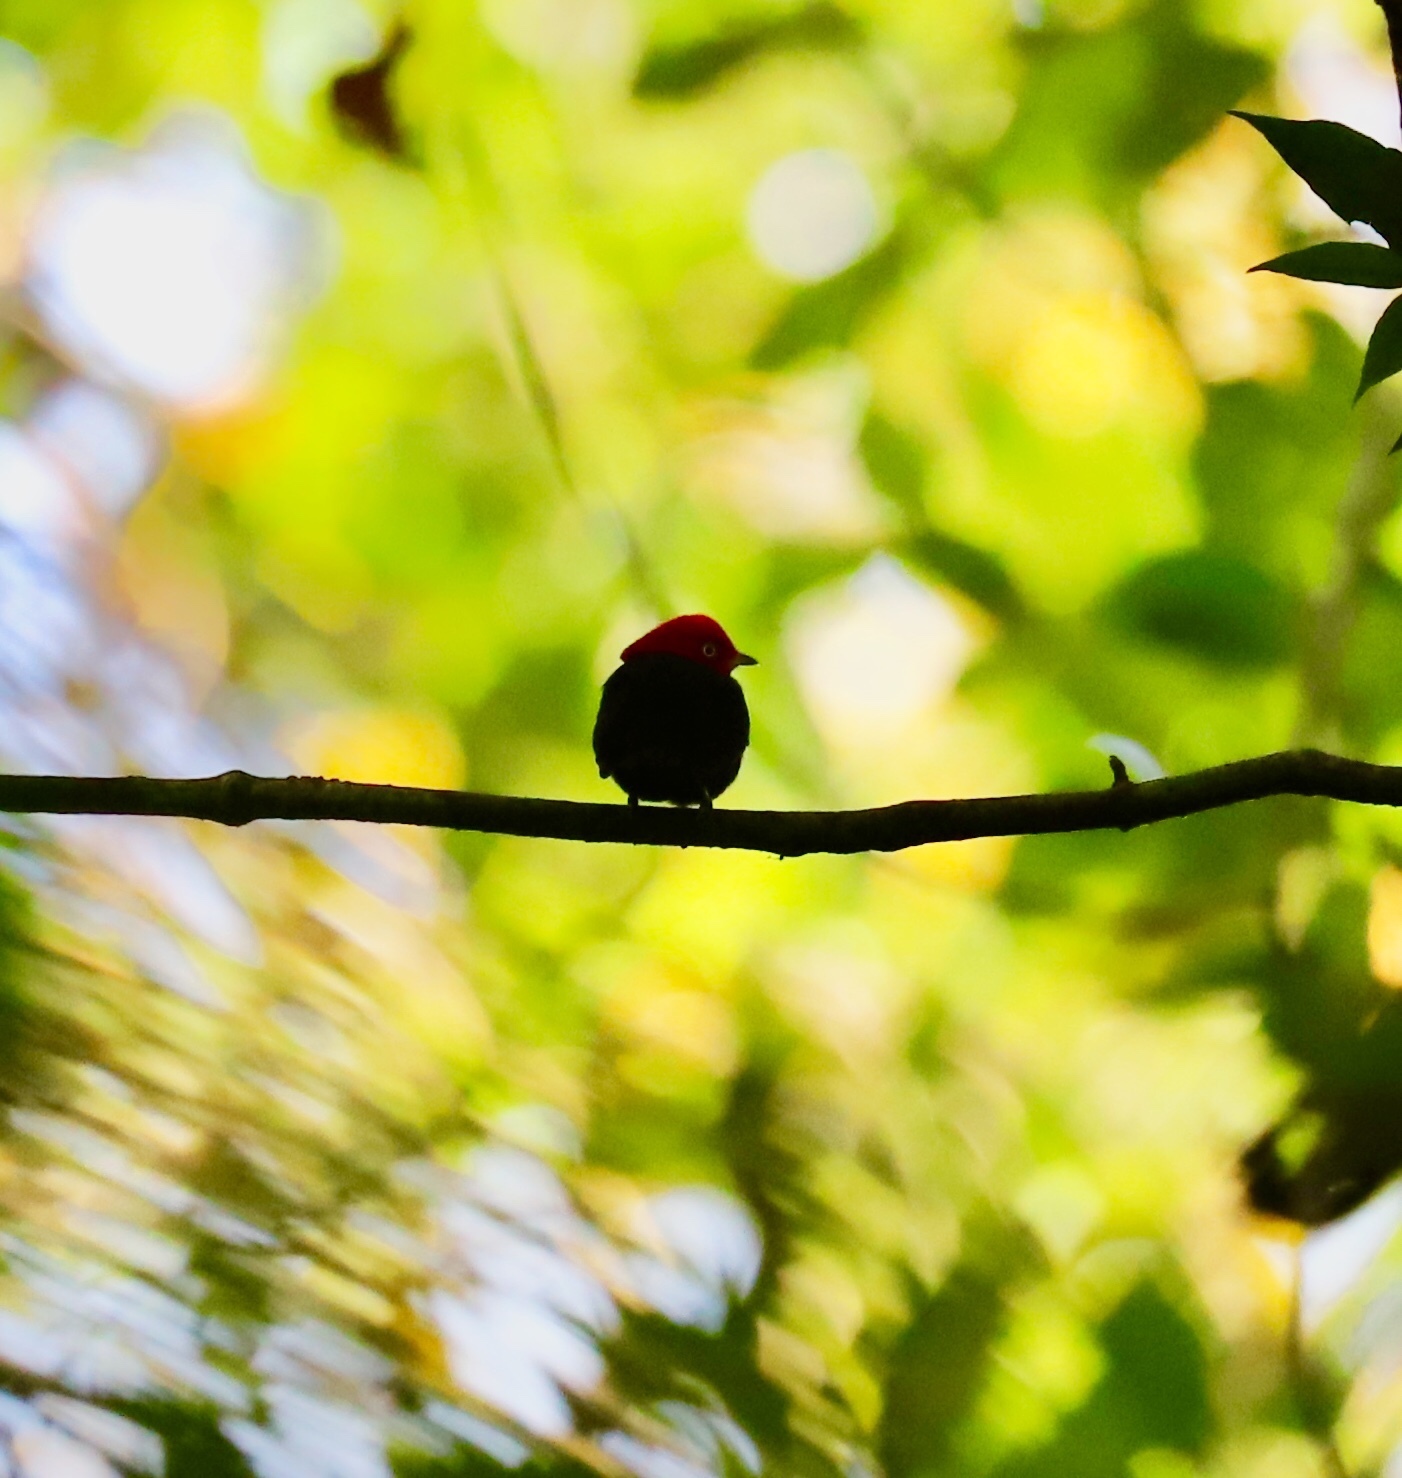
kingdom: Animalia
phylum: Chordata
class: Aves
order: Passeriformes
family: Pipridae
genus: Pipra
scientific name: Pipra mentalis
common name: Red-capped manakin
